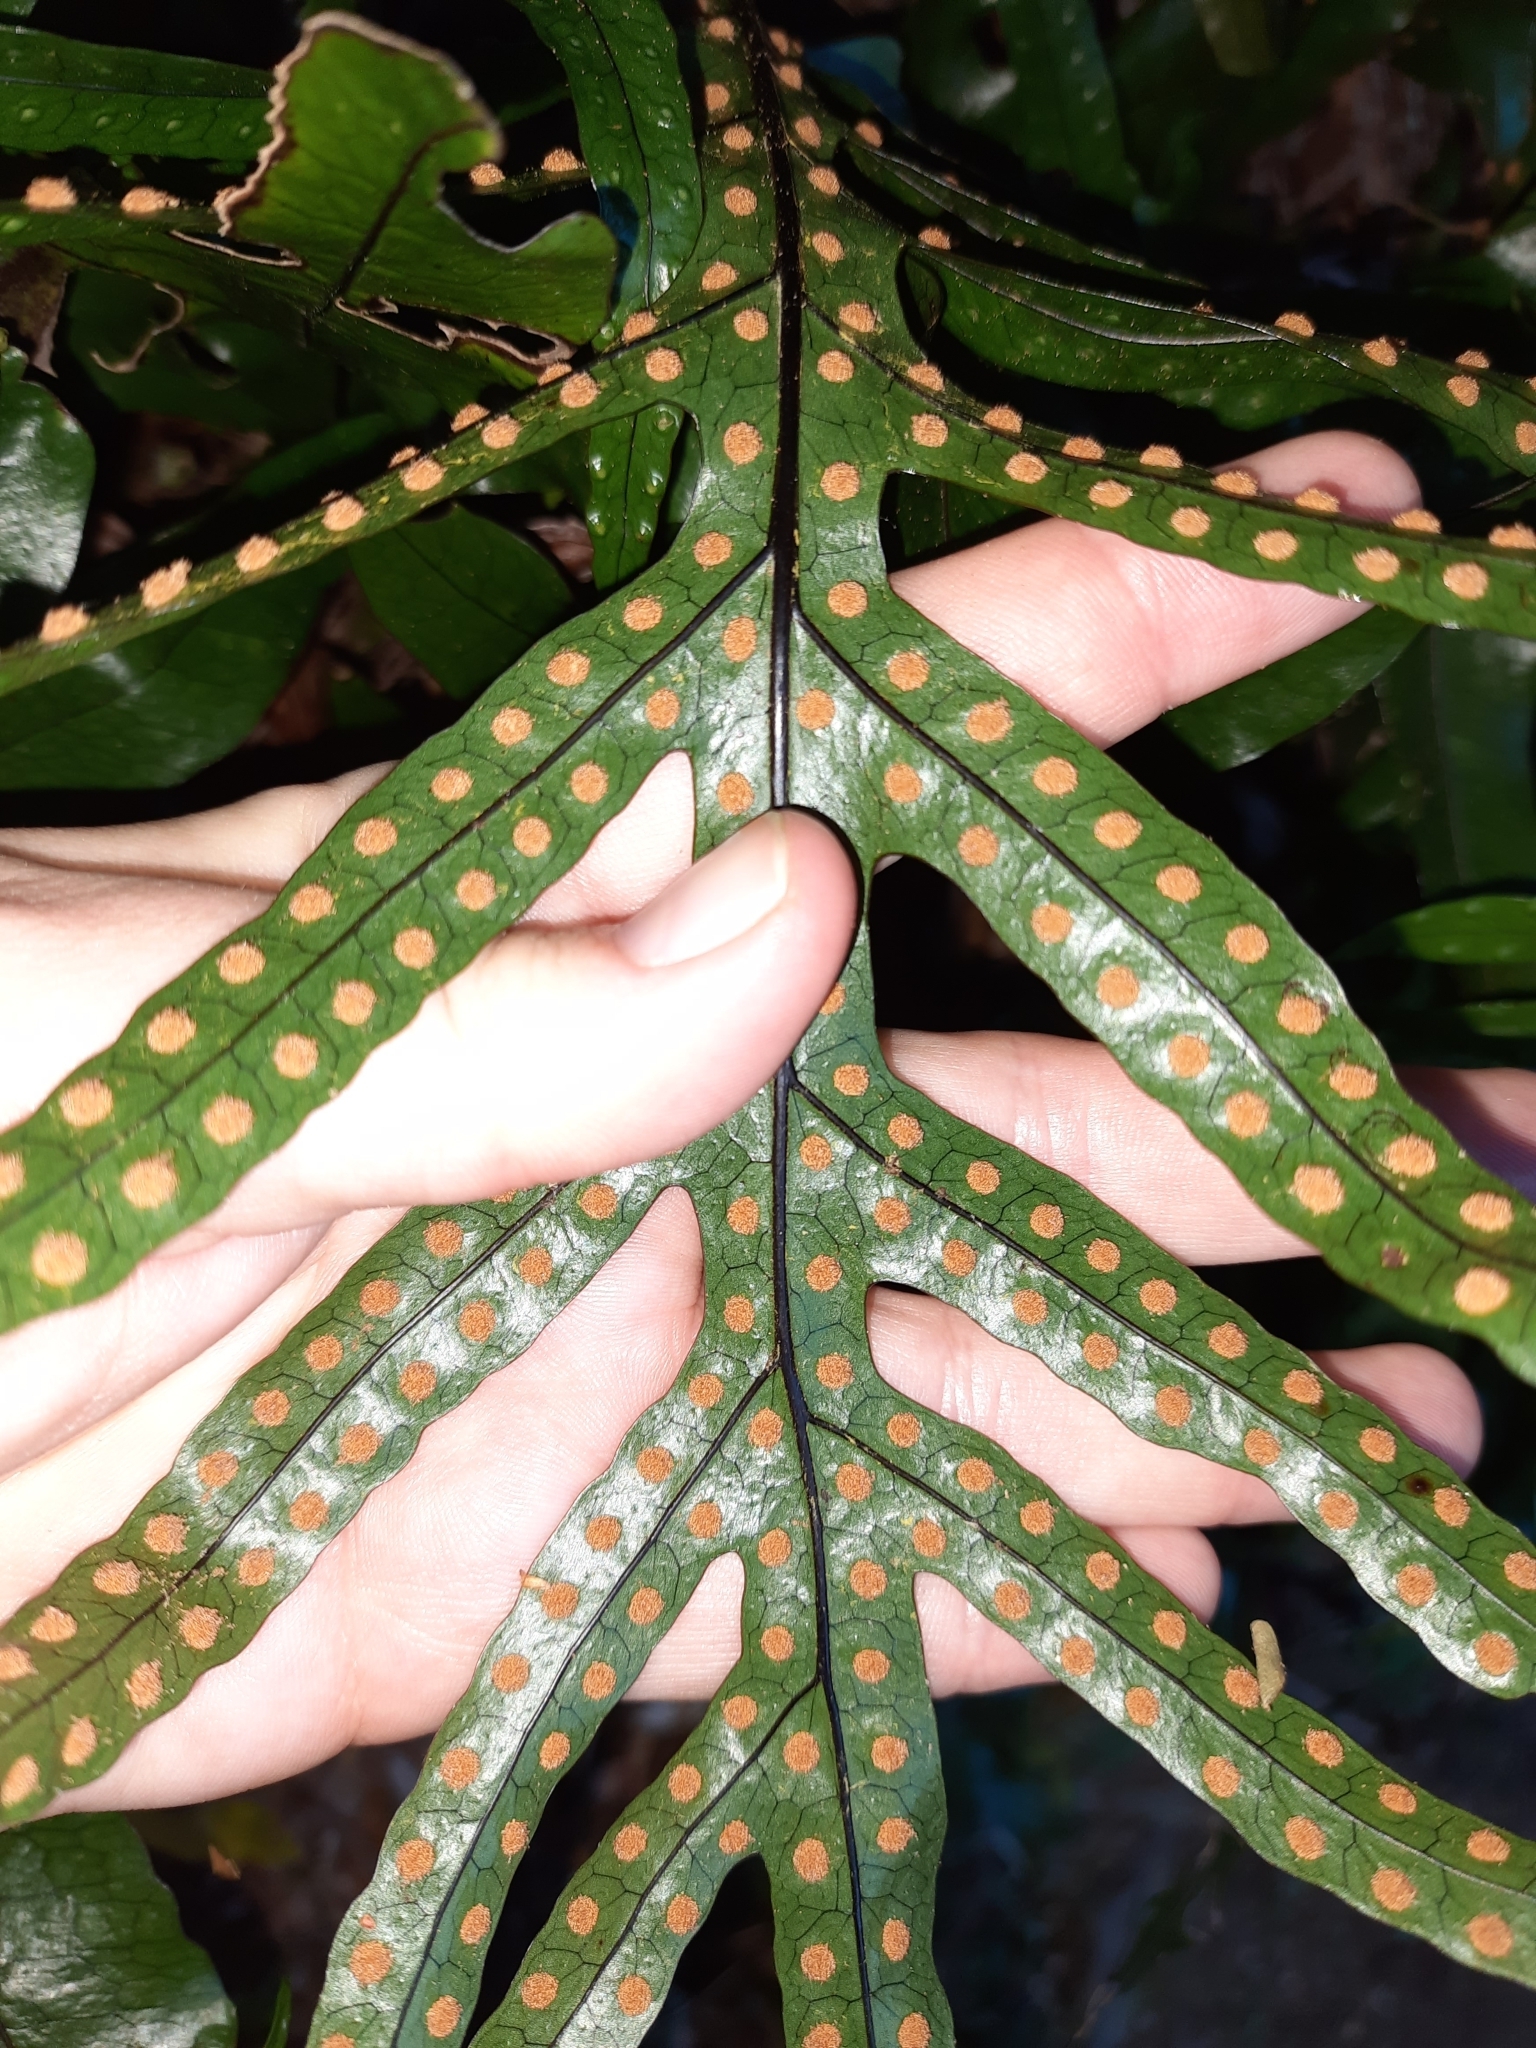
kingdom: Plantae
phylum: Tracheophyta
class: Polypodiopsida
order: Polypodiales
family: Polypodiaceae
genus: Lecanopteris
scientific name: Lecanopteris pustulata
